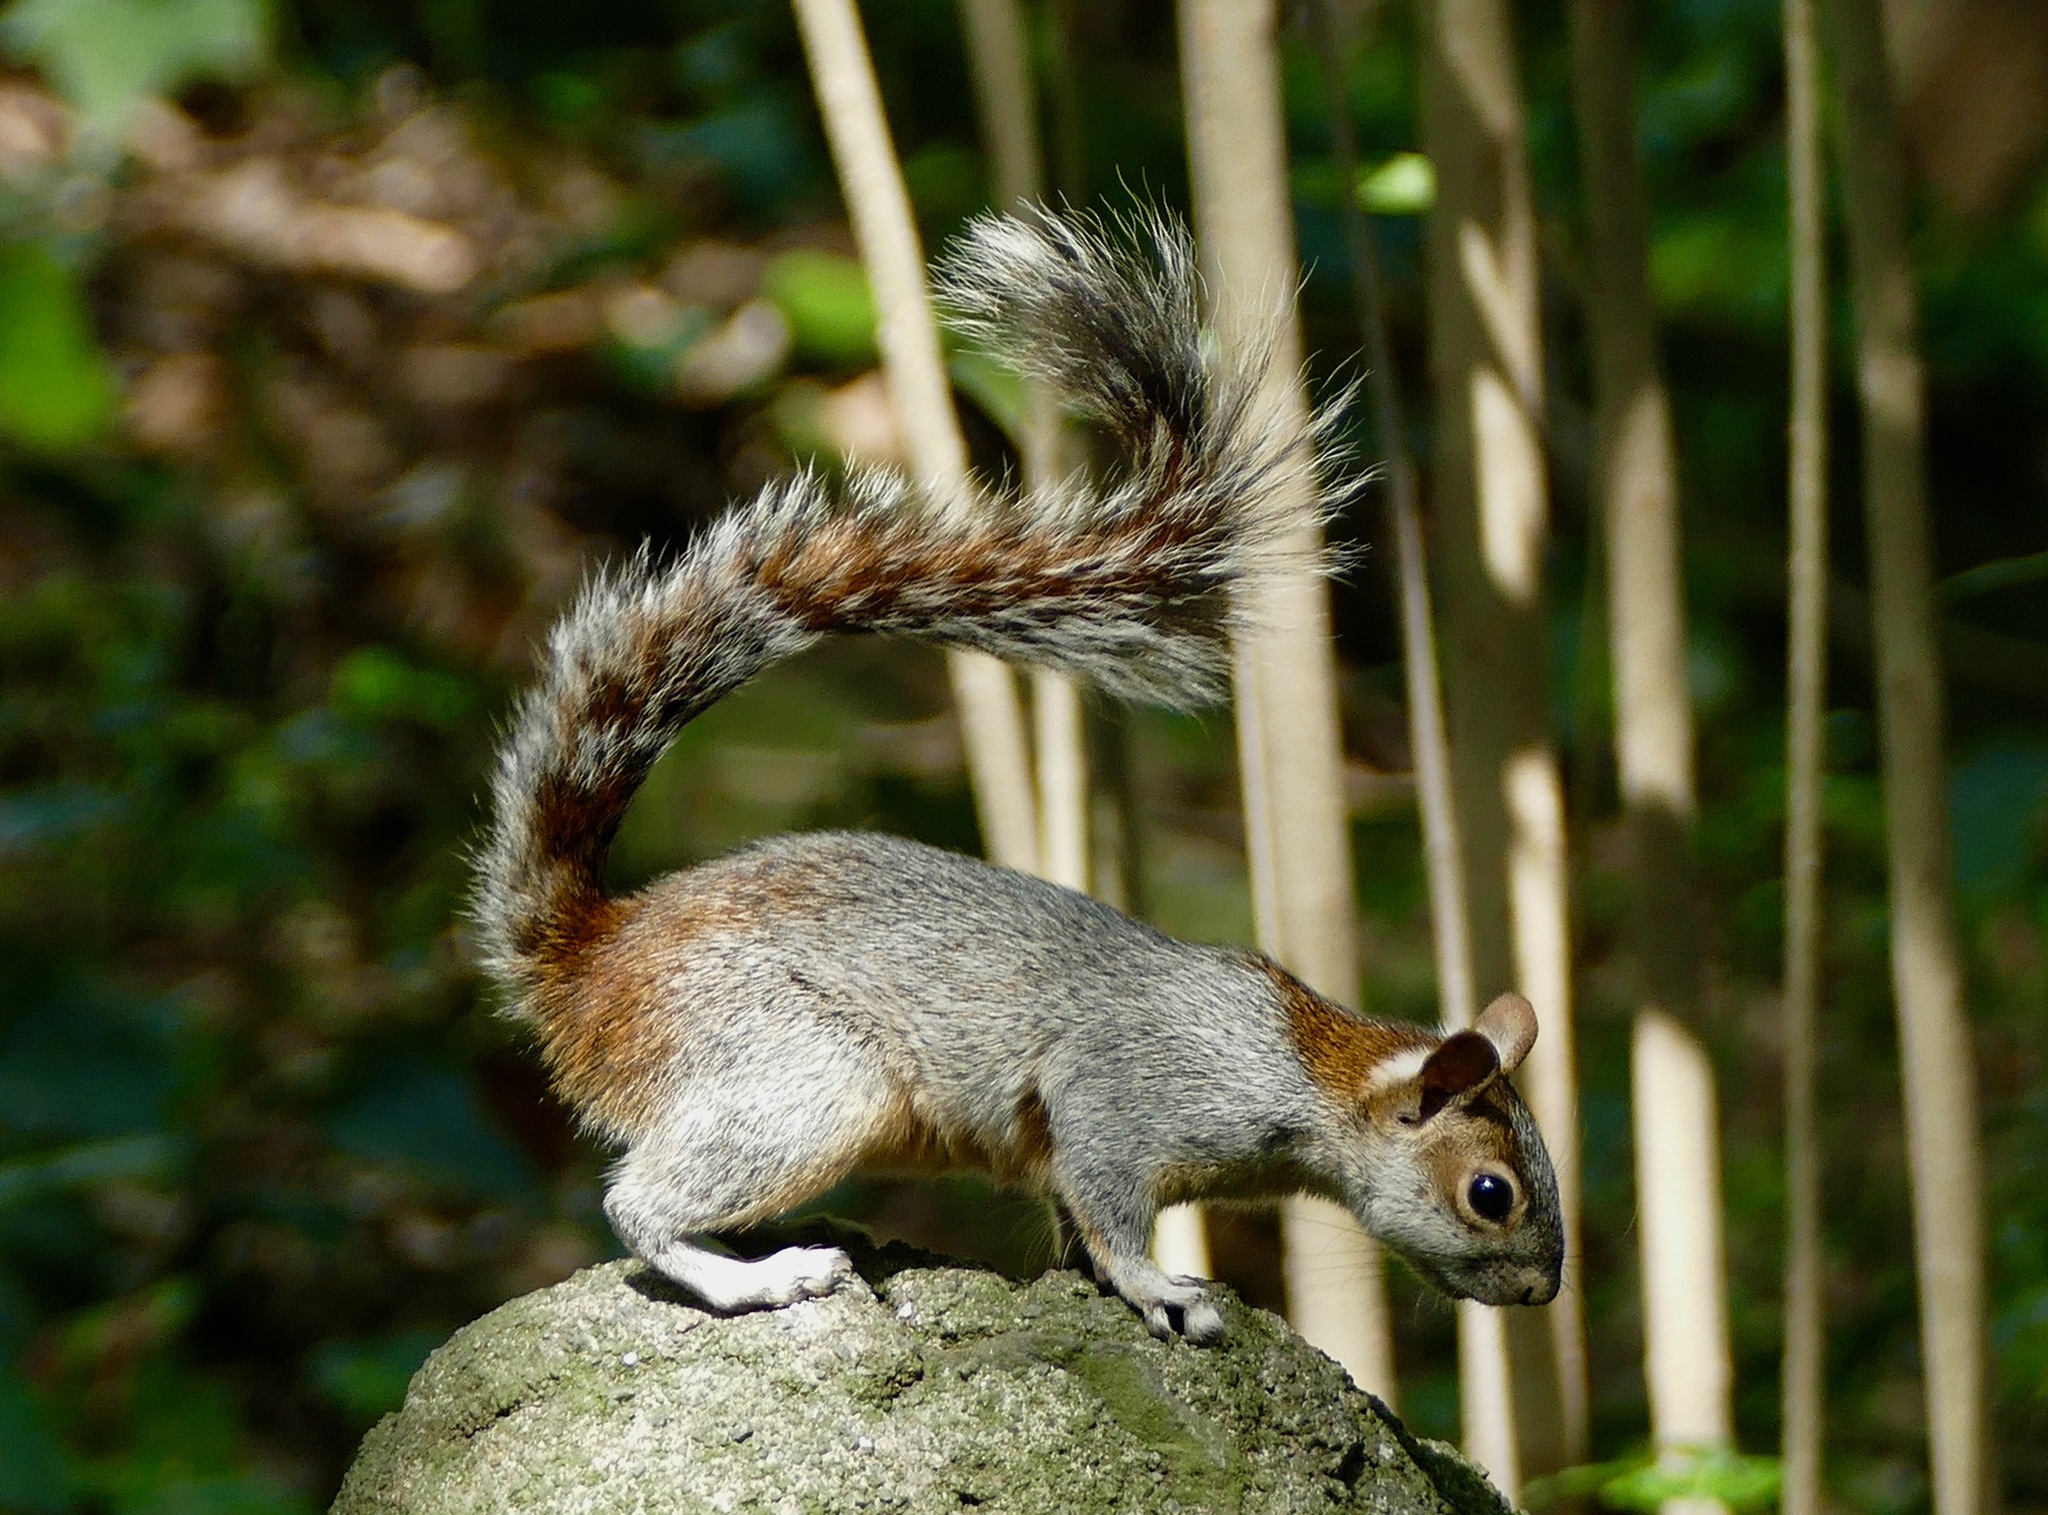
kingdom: Animalia
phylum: Chordata
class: Mammalia
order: Rodentia
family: Sciuridae
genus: Sciurus
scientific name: Sciurus aureogaster
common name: Red-bellied squirrel
